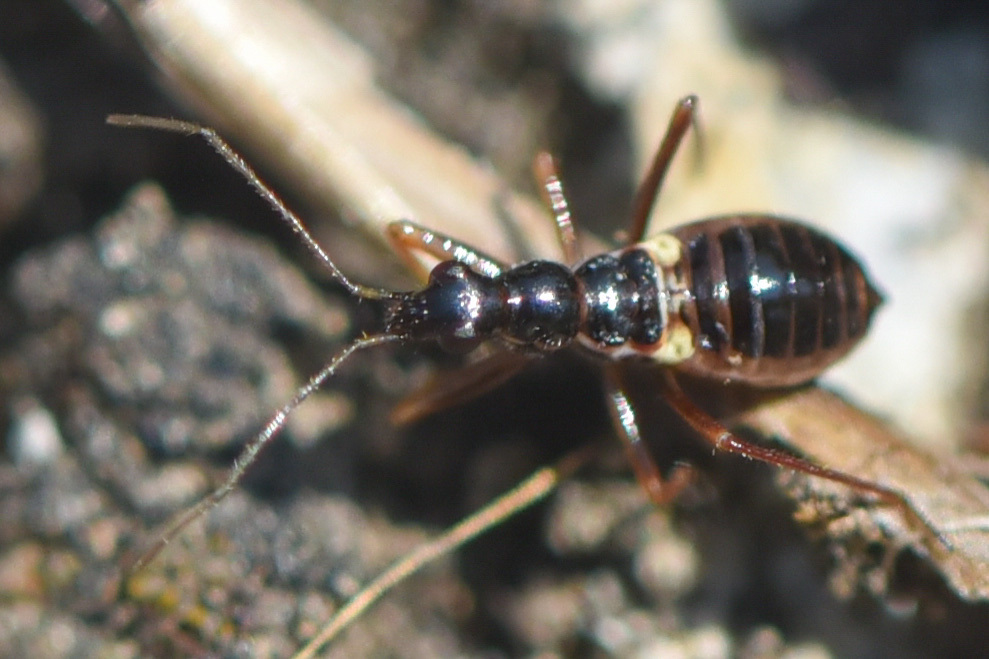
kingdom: Animalia
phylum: Arthropoda
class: Insecta
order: Hemiptera
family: Nabidae
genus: Nabis
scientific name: Nabis
